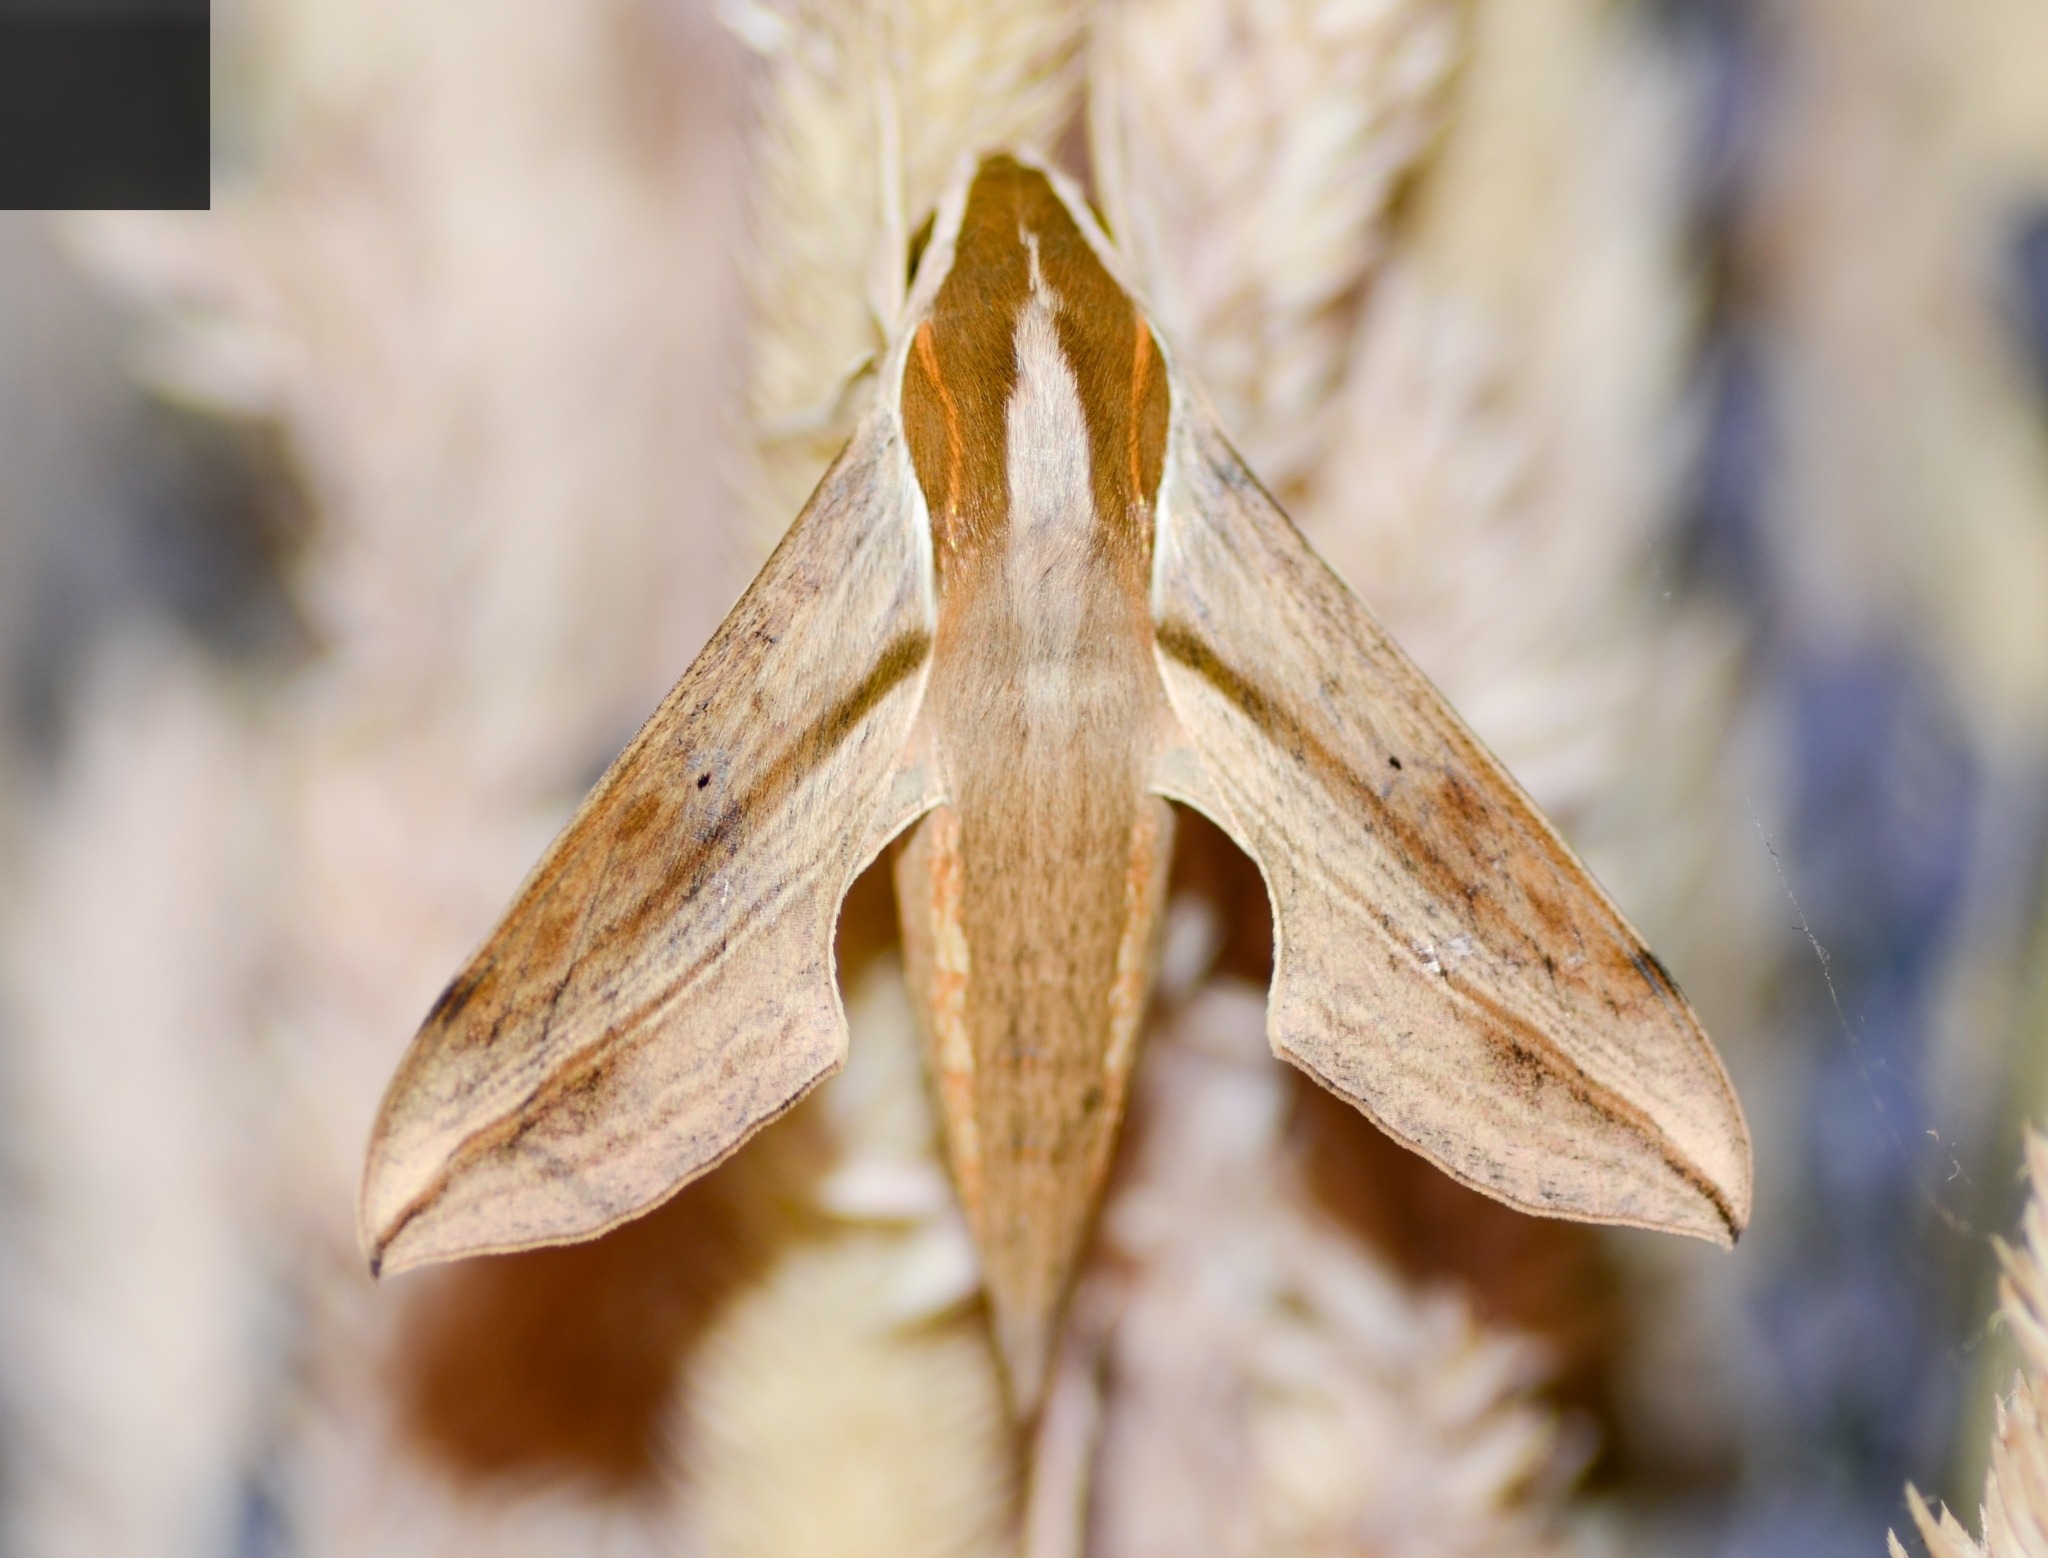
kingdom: Animalia
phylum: Arthropoda
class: Insecta
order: Lepidoptera
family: Sphingidae
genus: Hippotion
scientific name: Hippotion rosetta
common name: Vine hawk moth
